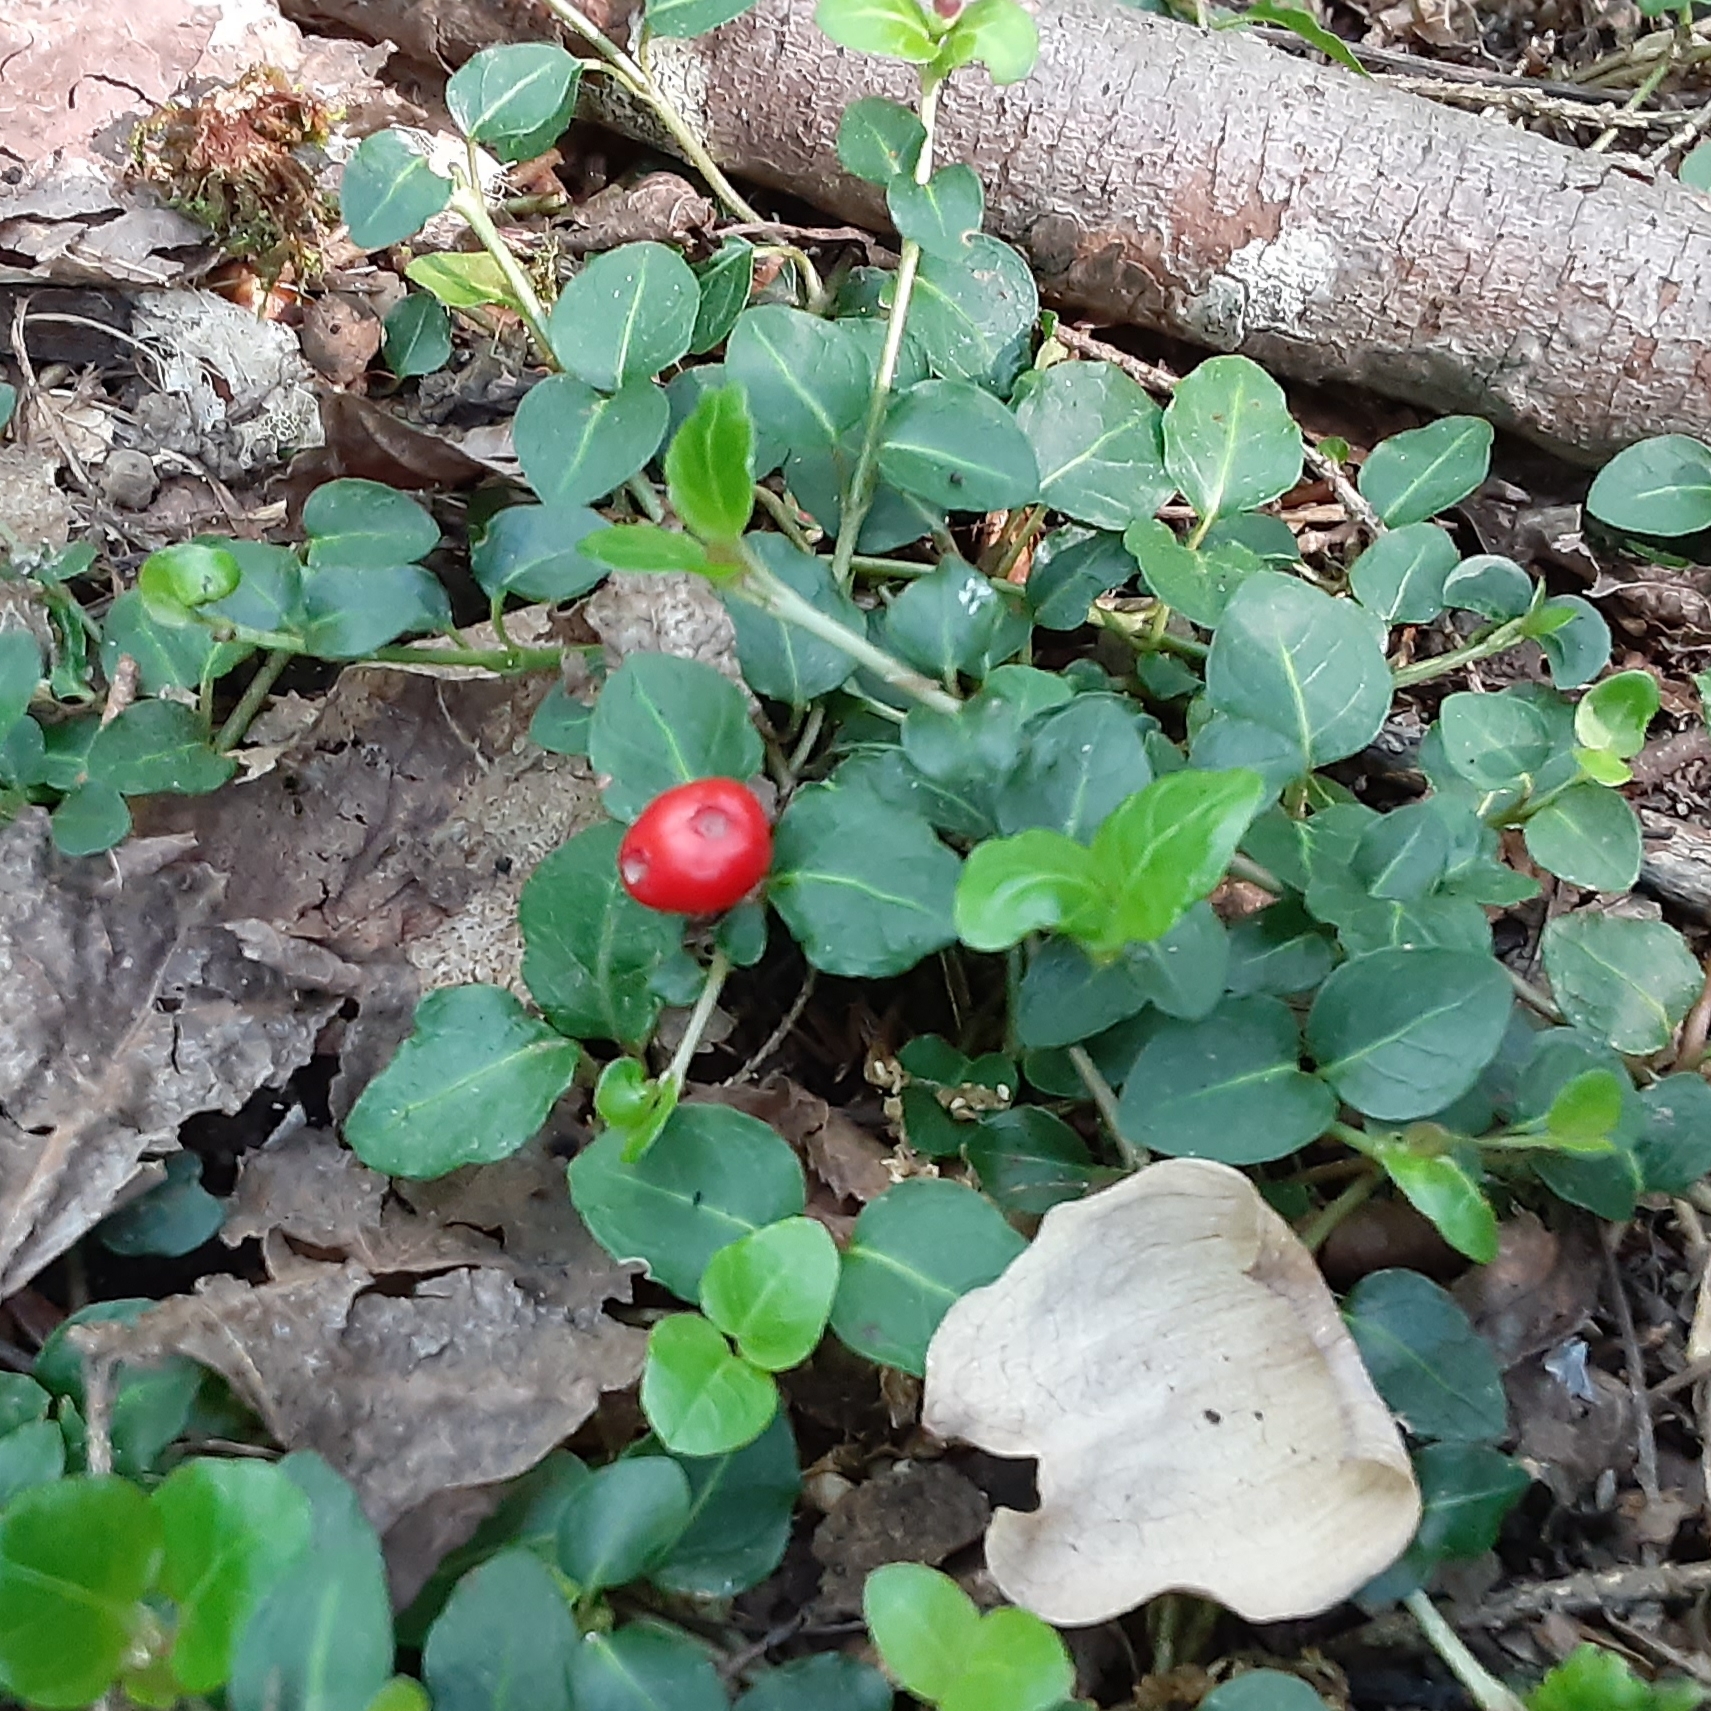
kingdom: Plantae
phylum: Tracheophyta
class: Magnoliopsida
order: Gentianales
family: Rubiaceae
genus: Mitchella
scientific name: Mitchella repens
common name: Partridge-berry
